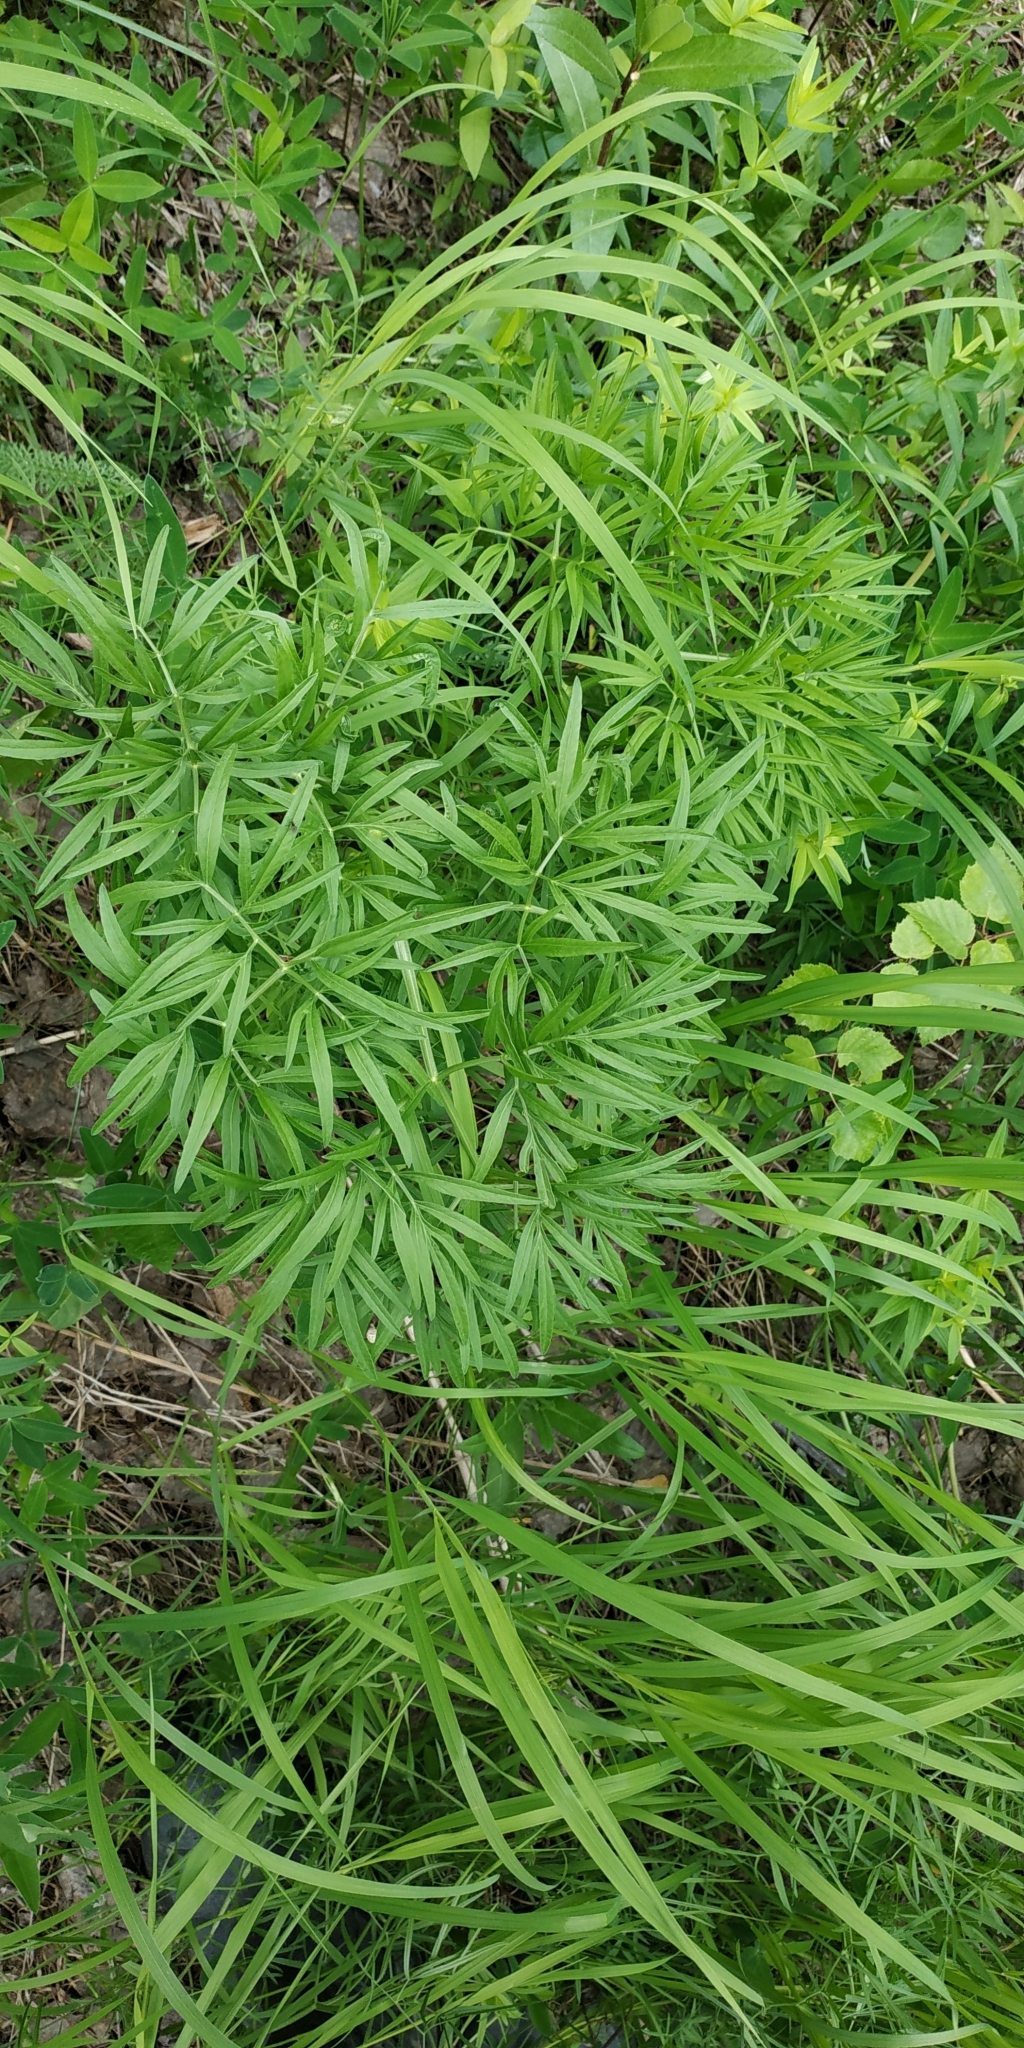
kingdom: Plantae
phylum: Tracheophyta
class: Magnoliopsida
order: Apiales
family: Apiaceae
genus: Cenolophium
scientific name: Cenolophium fischeri
